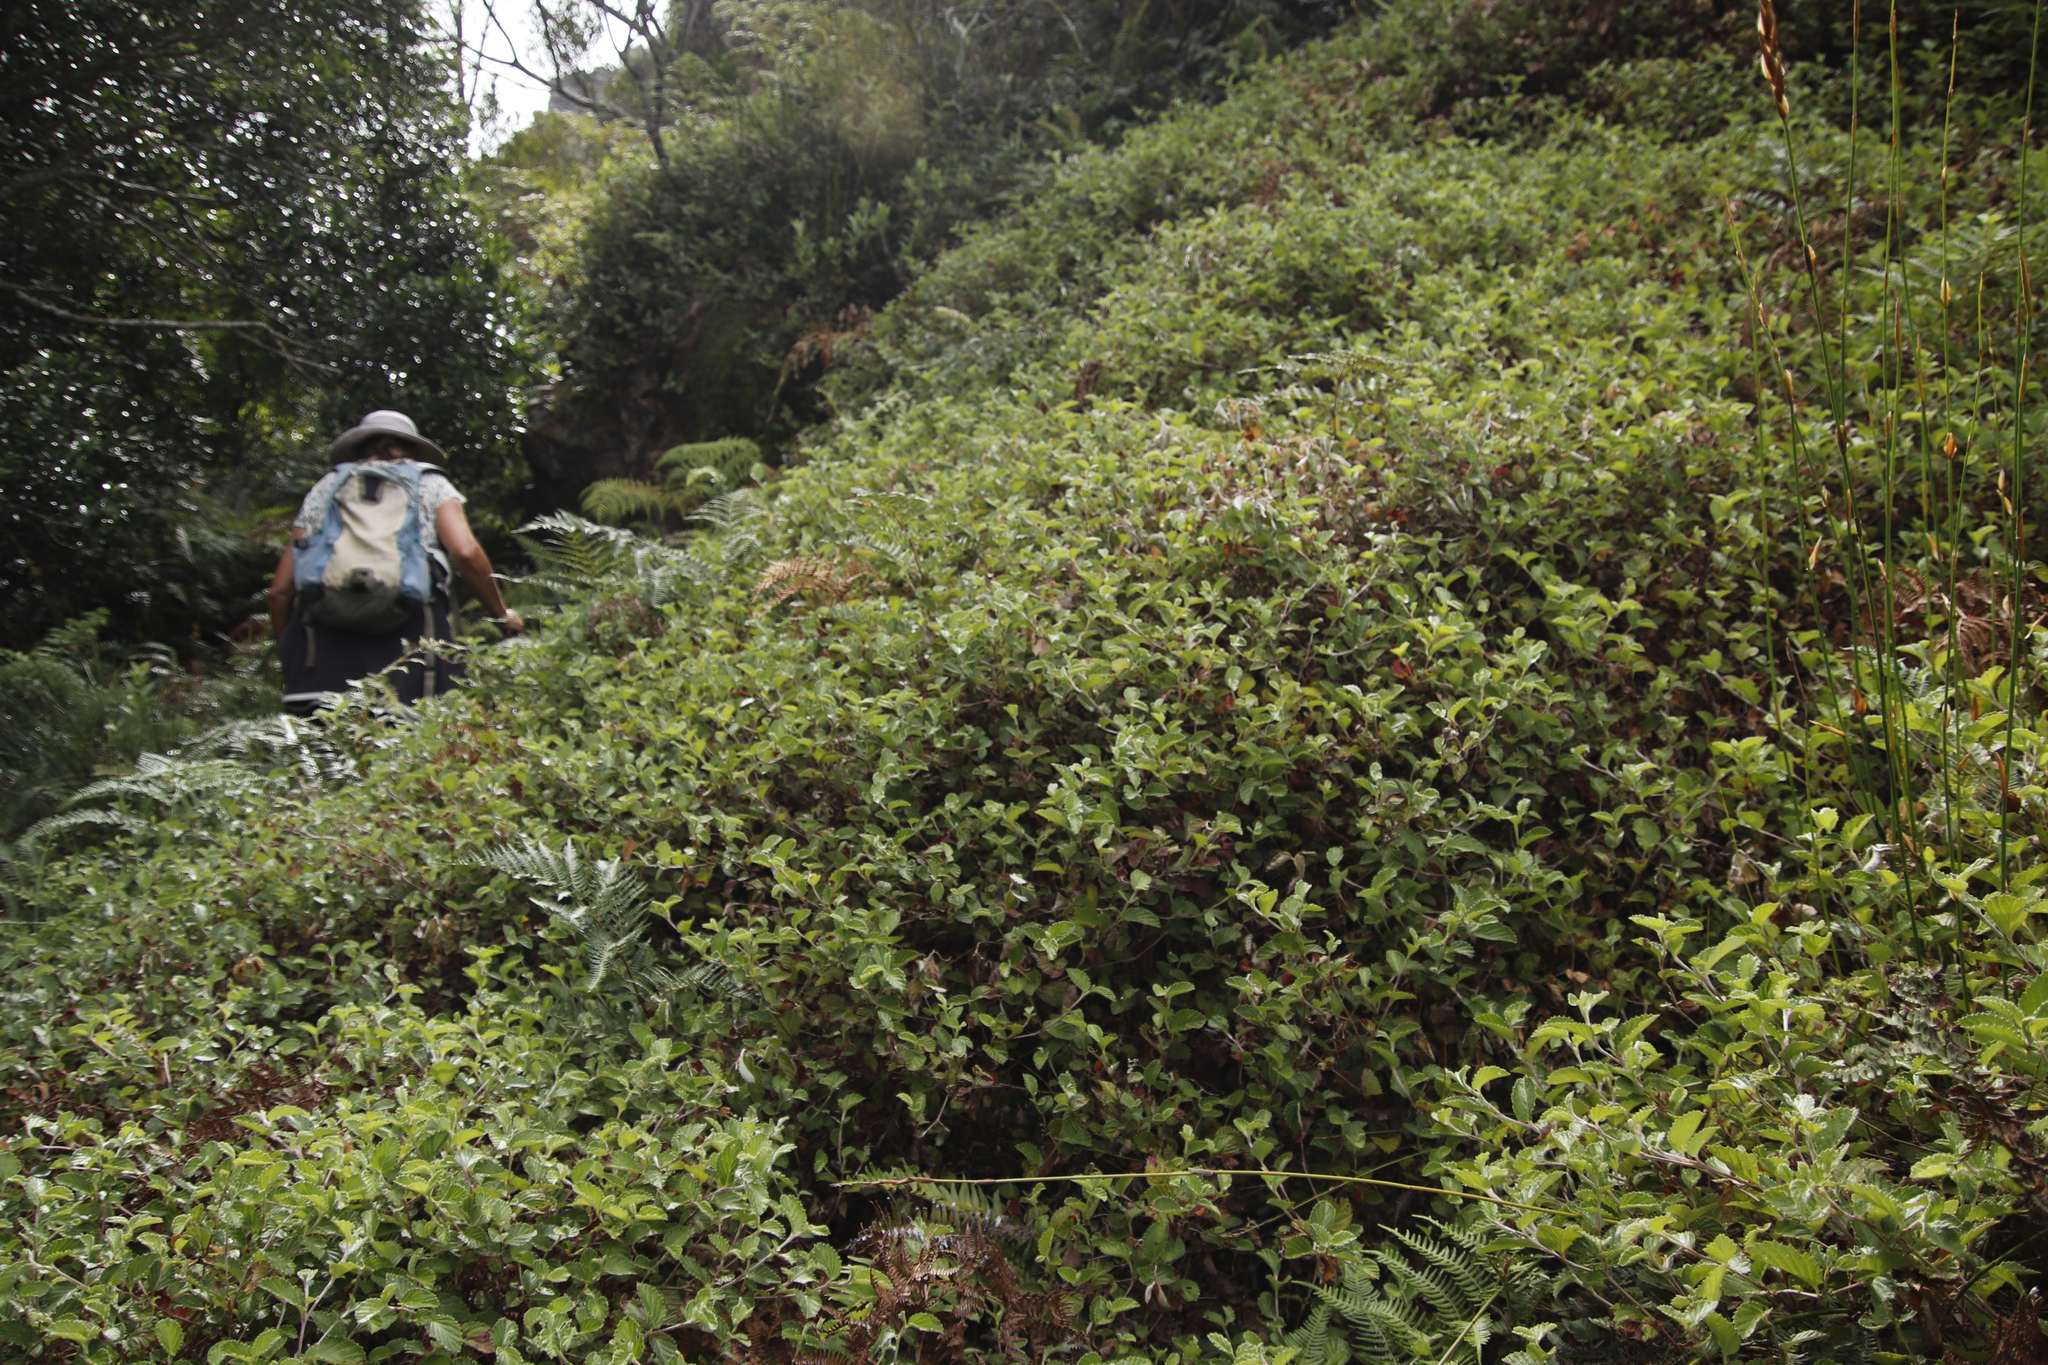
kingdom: Plantae
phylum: Tracheophyta
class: Magnoliopsida
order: Rosales
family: Rosaceae
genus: Cliffortia
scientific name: Cliffortia odorata
